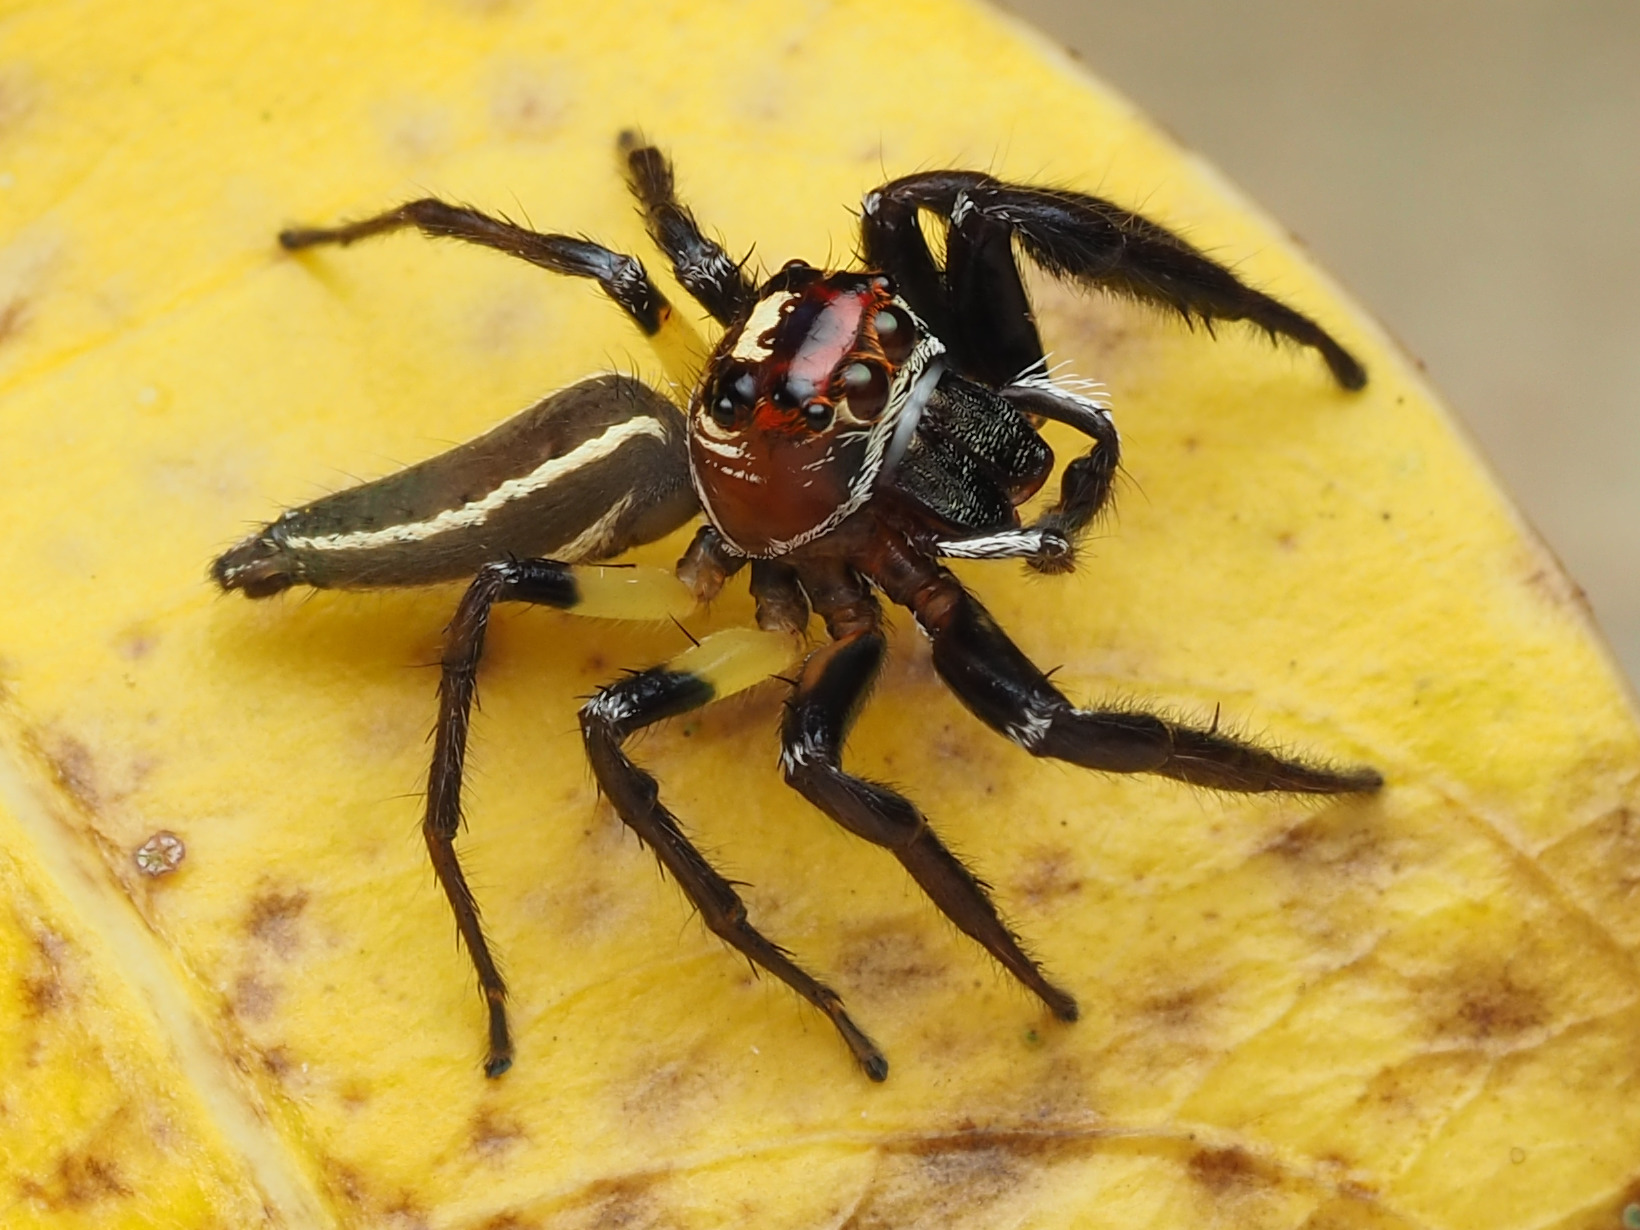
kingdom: Animalia
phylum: Arthropoda
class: Arachnida
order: Araneae
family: Salticidae
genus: Colonus
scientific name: Colonus sylvanus
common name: Jumping spiders
